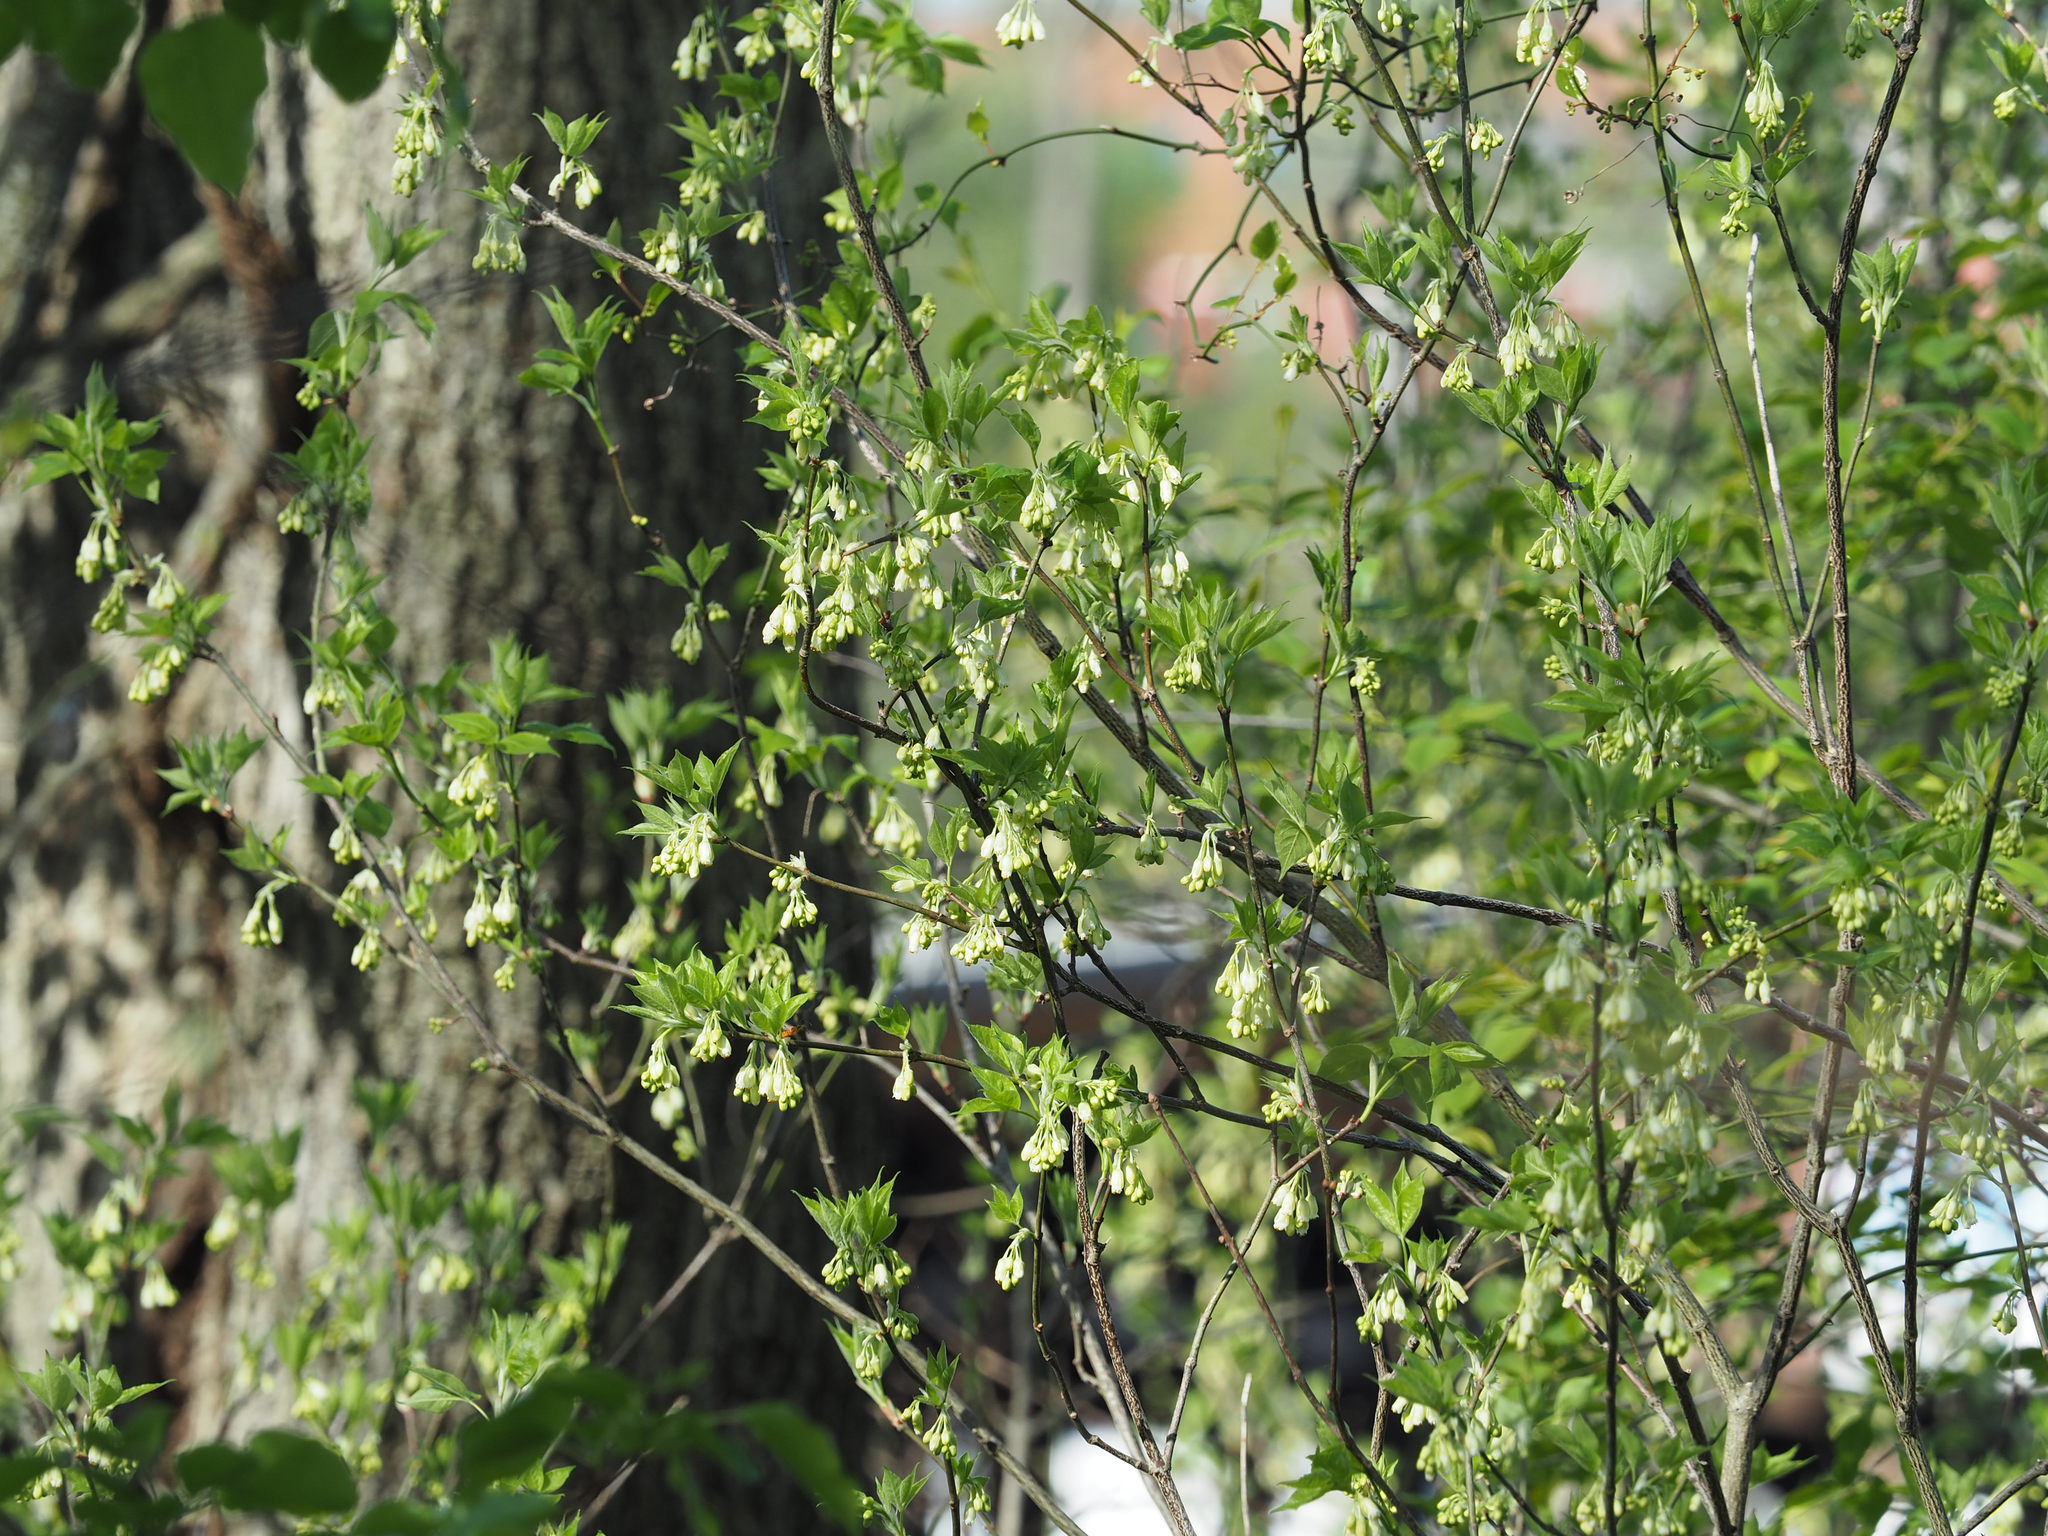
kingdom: Plantae
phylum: Tracheophyta
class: Magnoliopsida
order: Rosales
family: Elaeagnaceae
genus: Elaeagnus
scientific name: Elaeagnus umbellata
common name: Autumn olive
